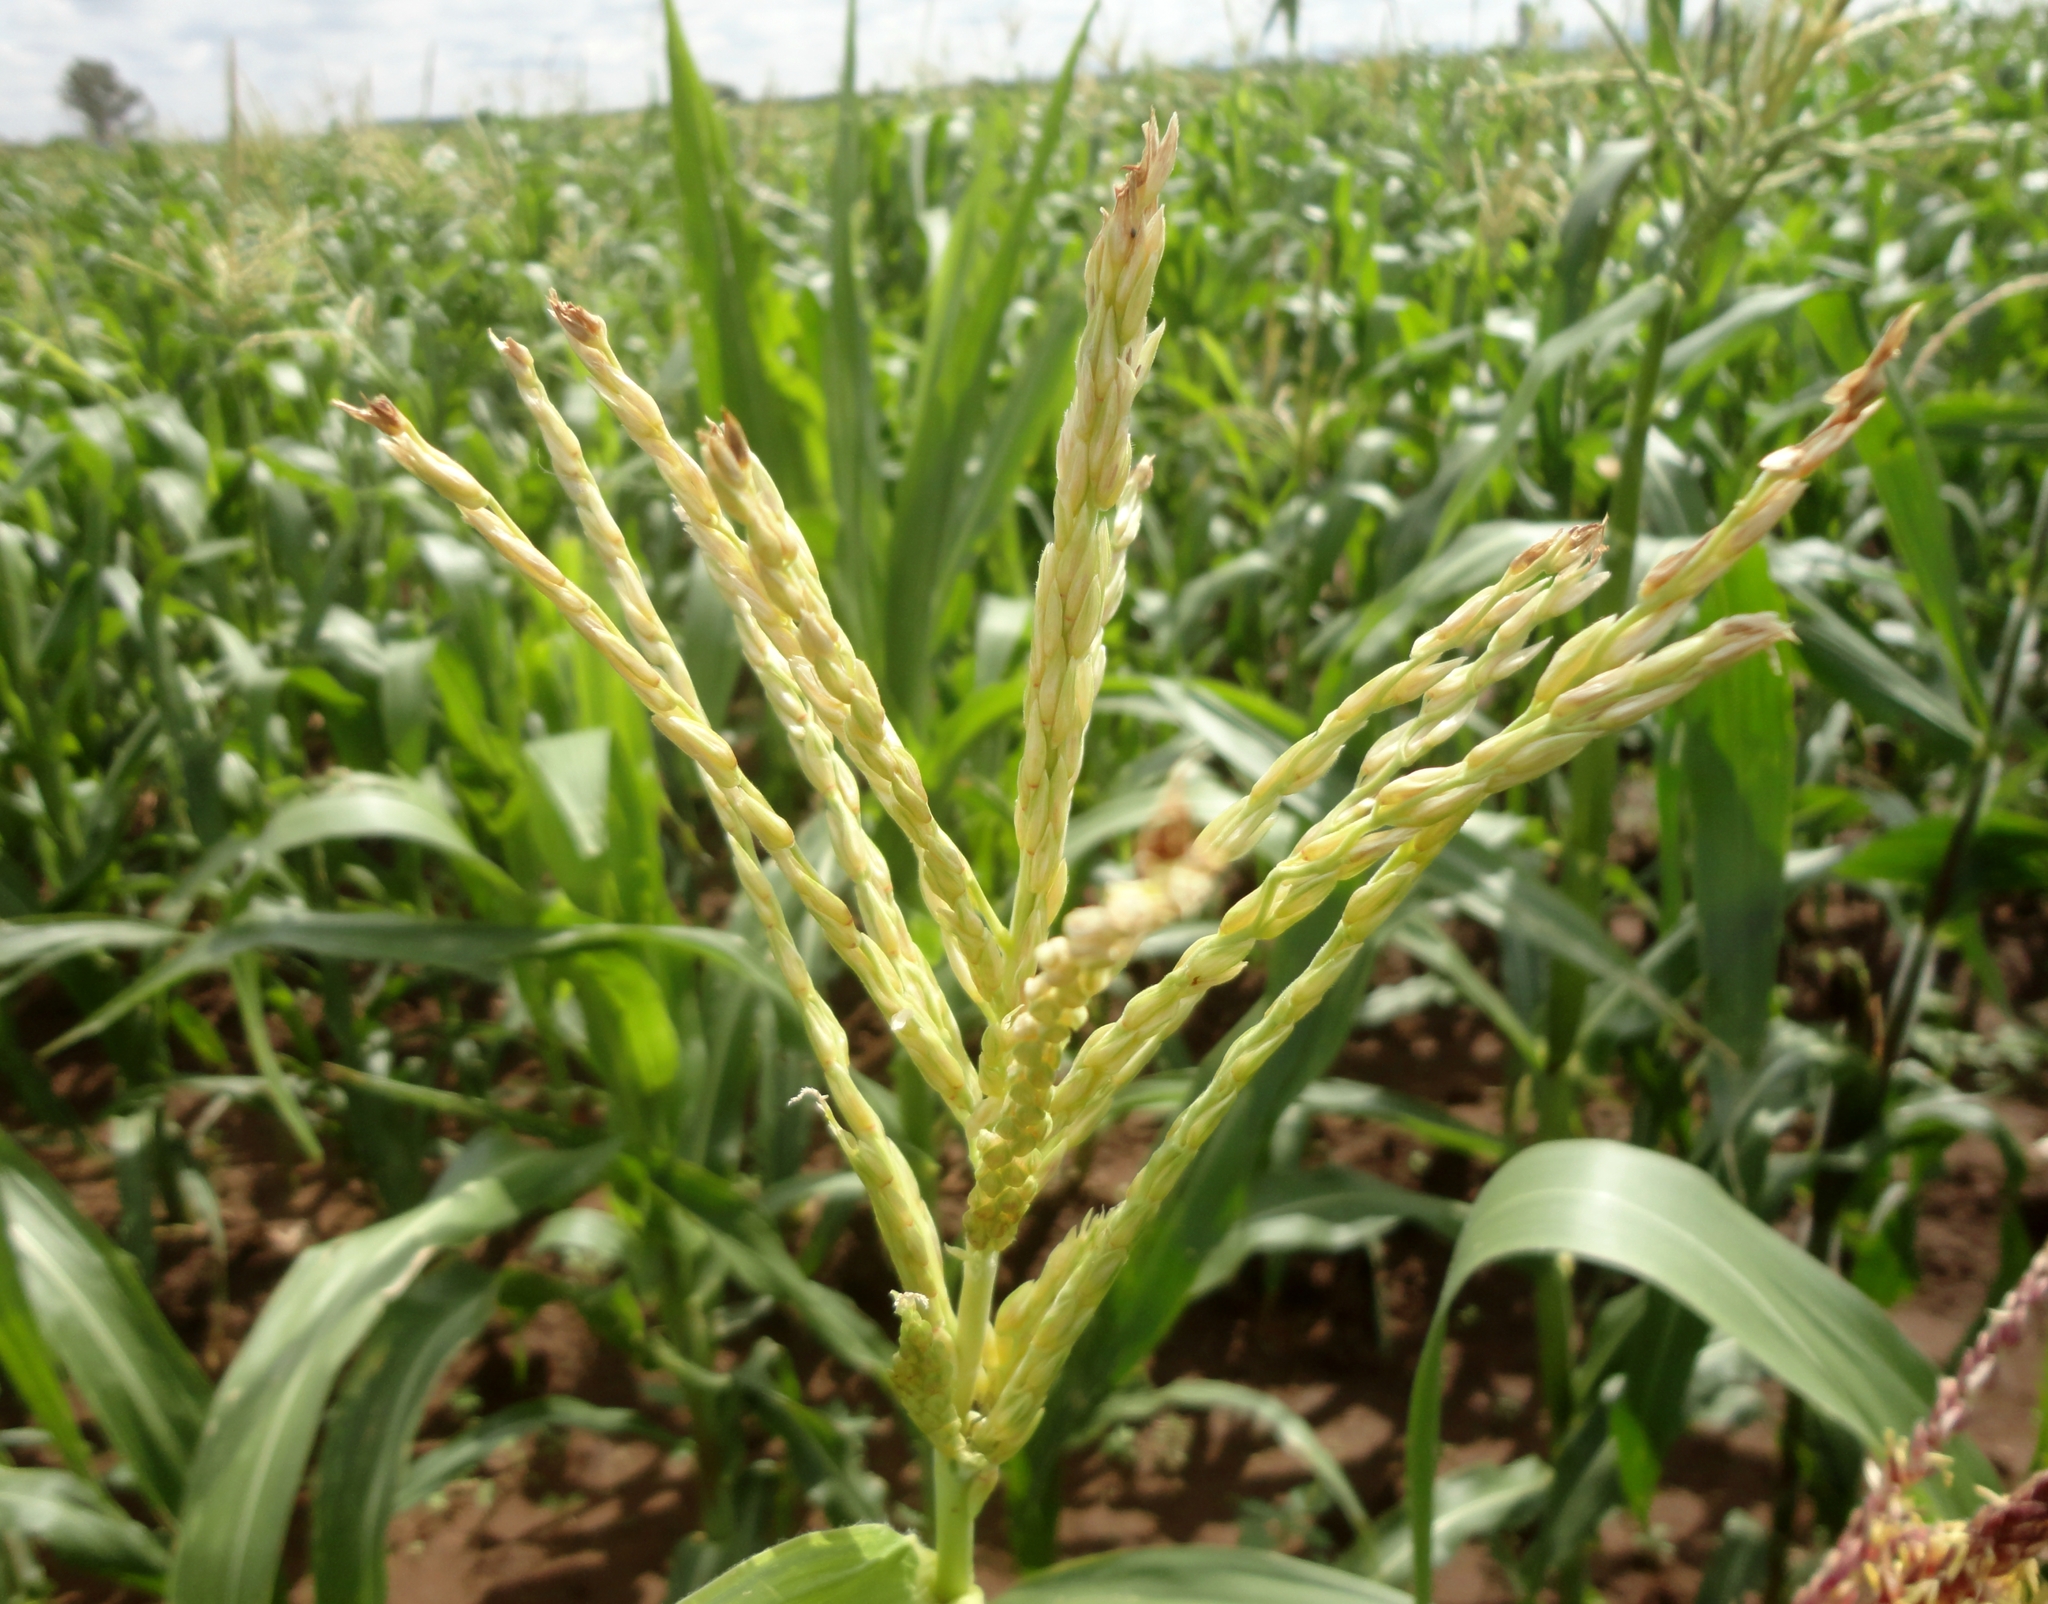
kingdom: Plantae
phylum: Tracheophyta
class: Liliopsida
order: Poales
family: Poaceae
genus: Zea
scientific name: Zea mays
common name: Maize
